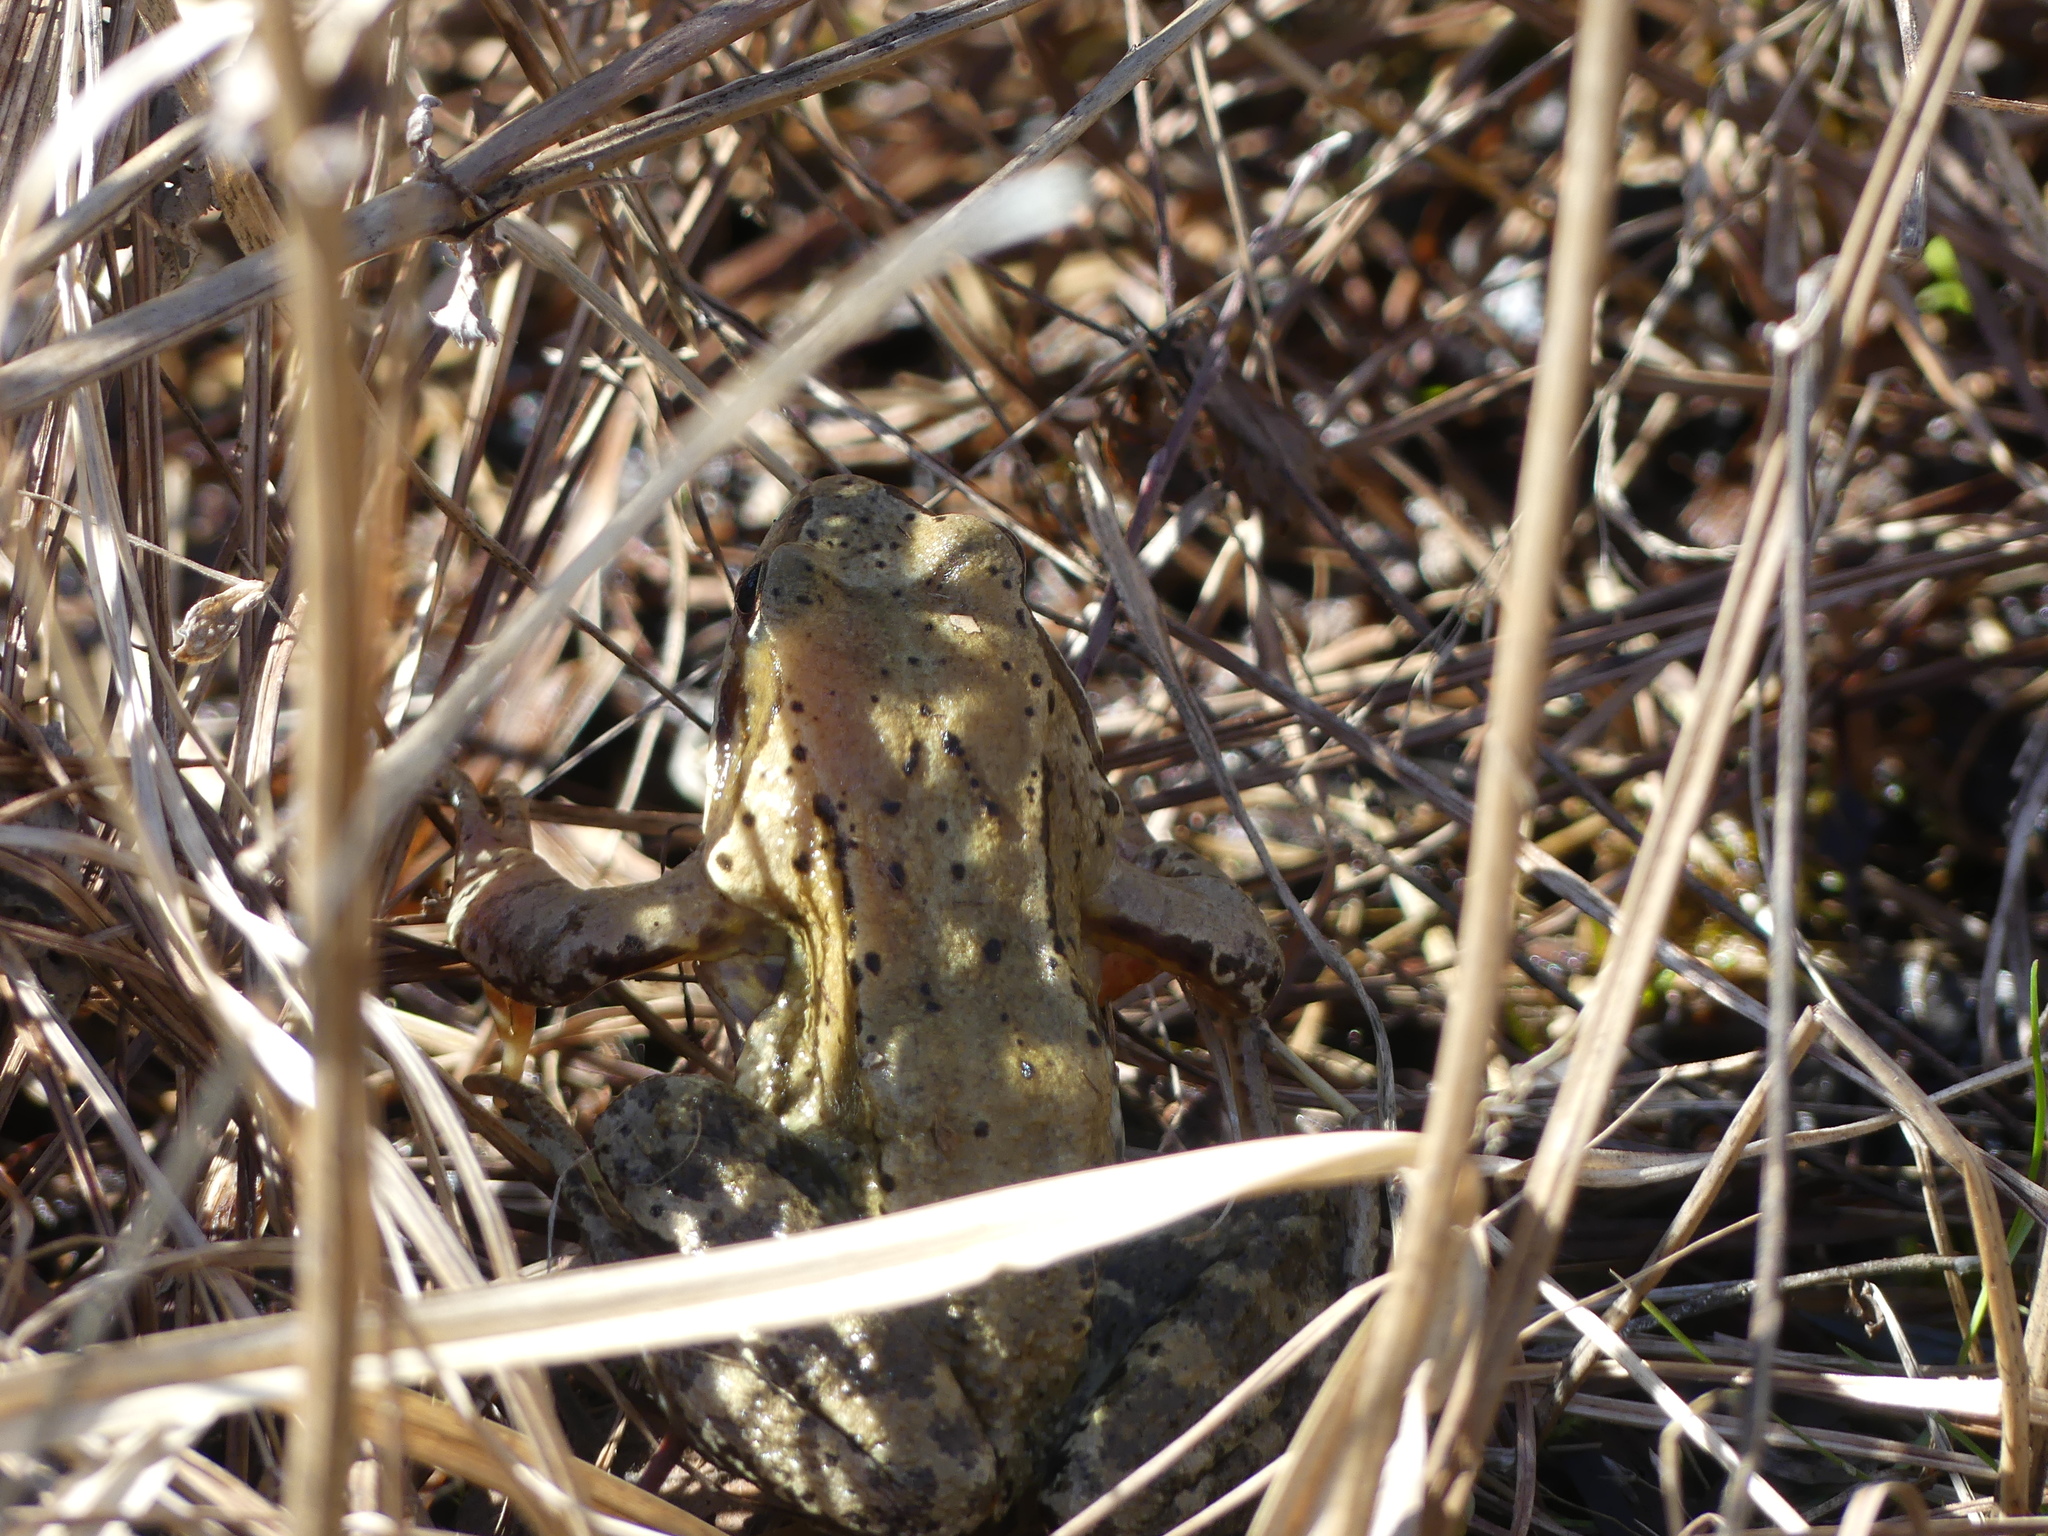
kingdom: Animalia
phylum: Chordata
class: Amphibia
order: Anura
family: Ranidae
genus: Rana
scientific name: Rana temporaria
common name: Common frog
